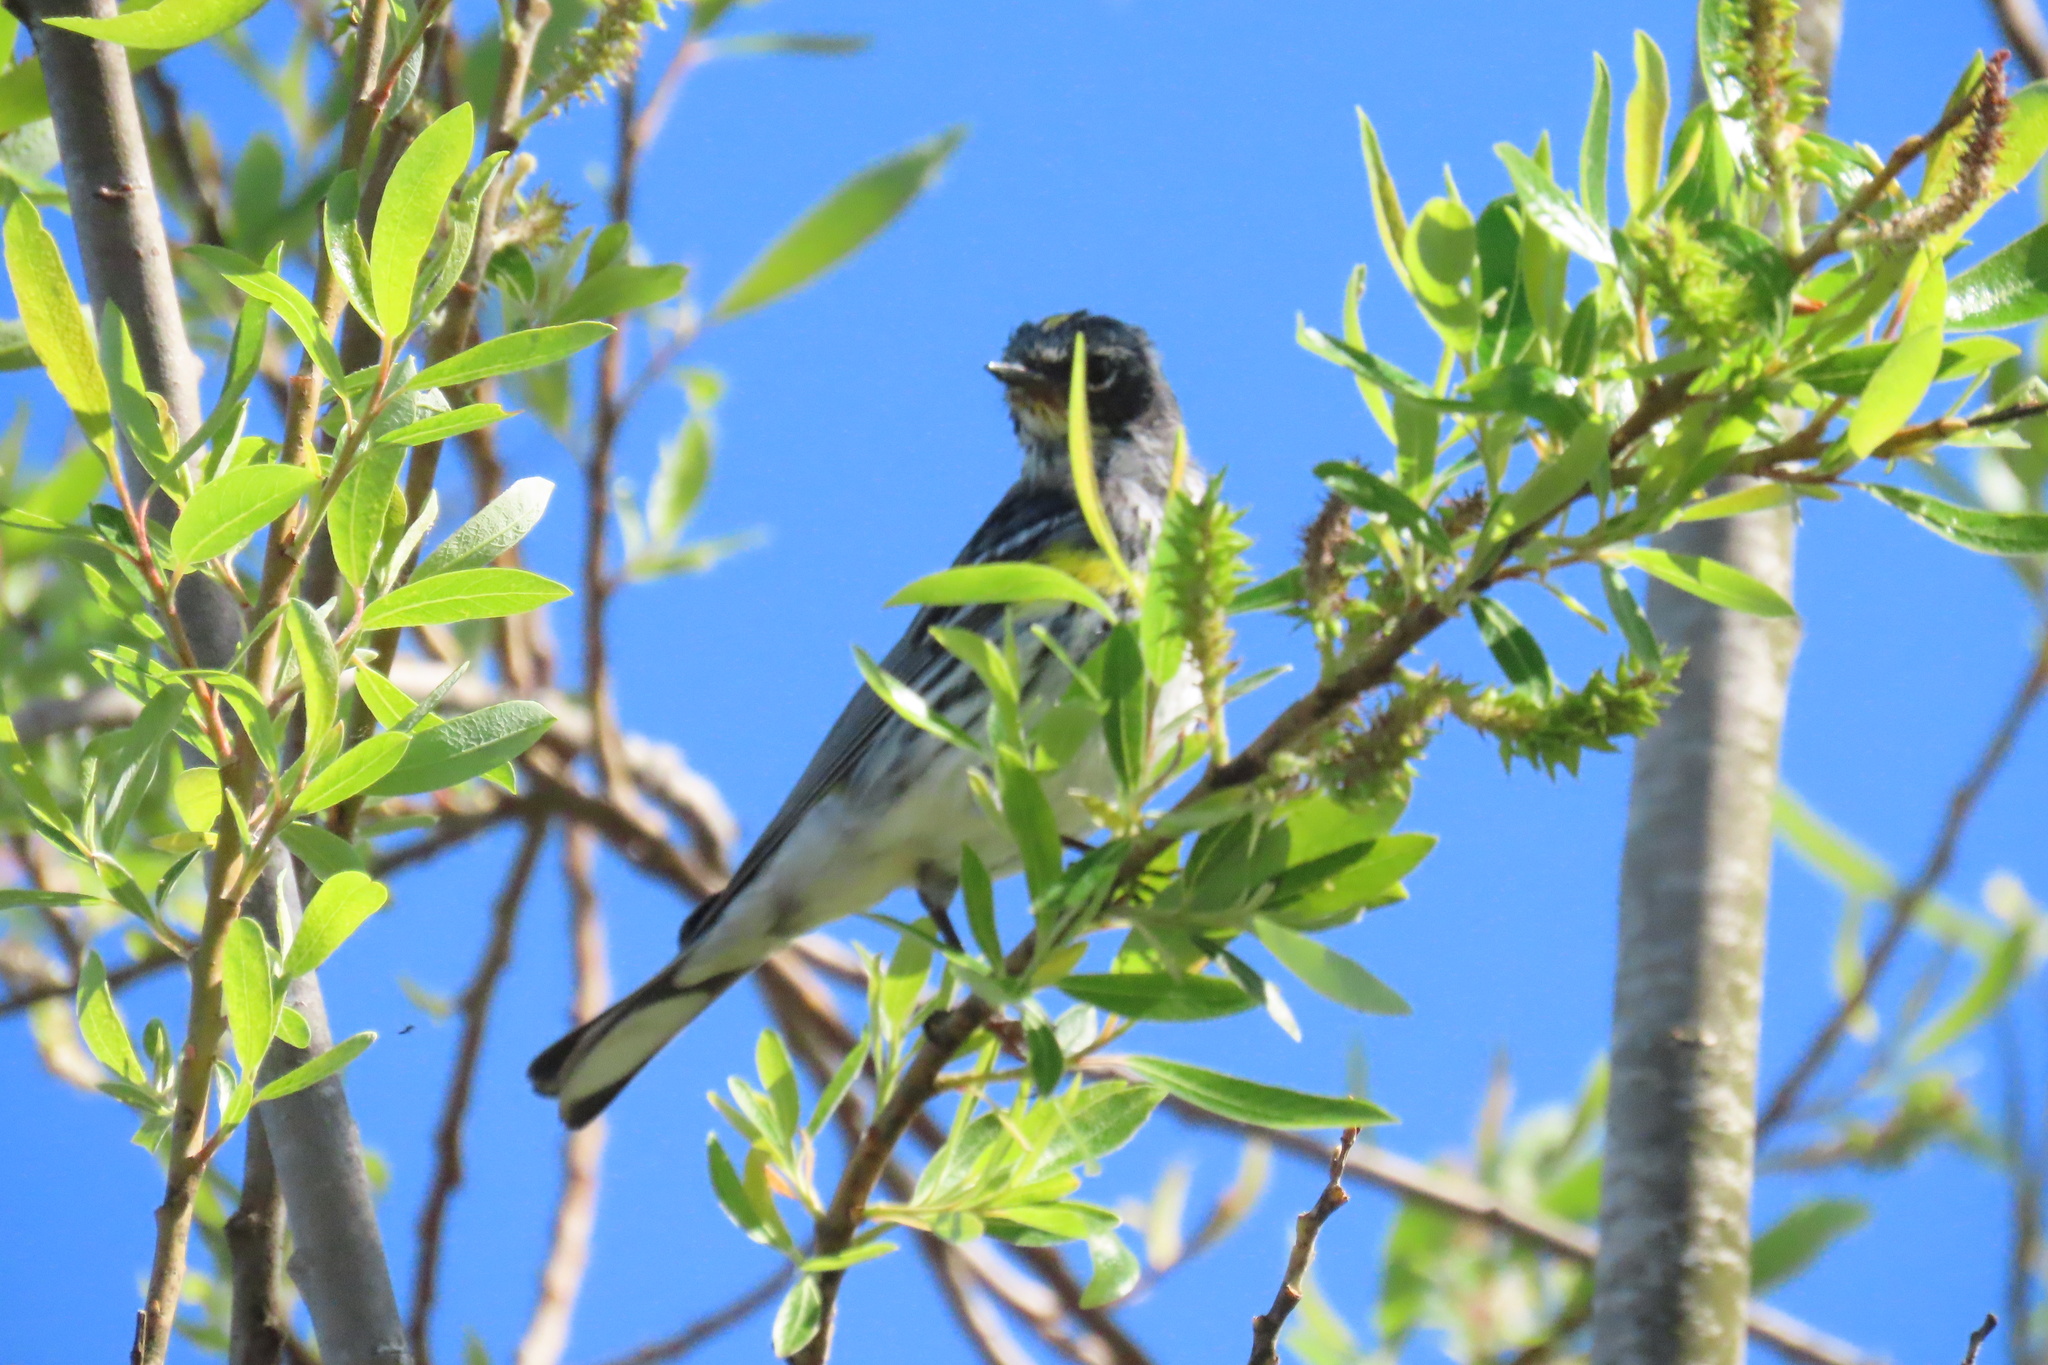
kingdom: Animalia
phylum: Chordata
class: Aves
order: Passeriformes
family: Parulidae
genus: Setophaga
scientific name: Setophaga coronata
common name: Myrtle warbler
